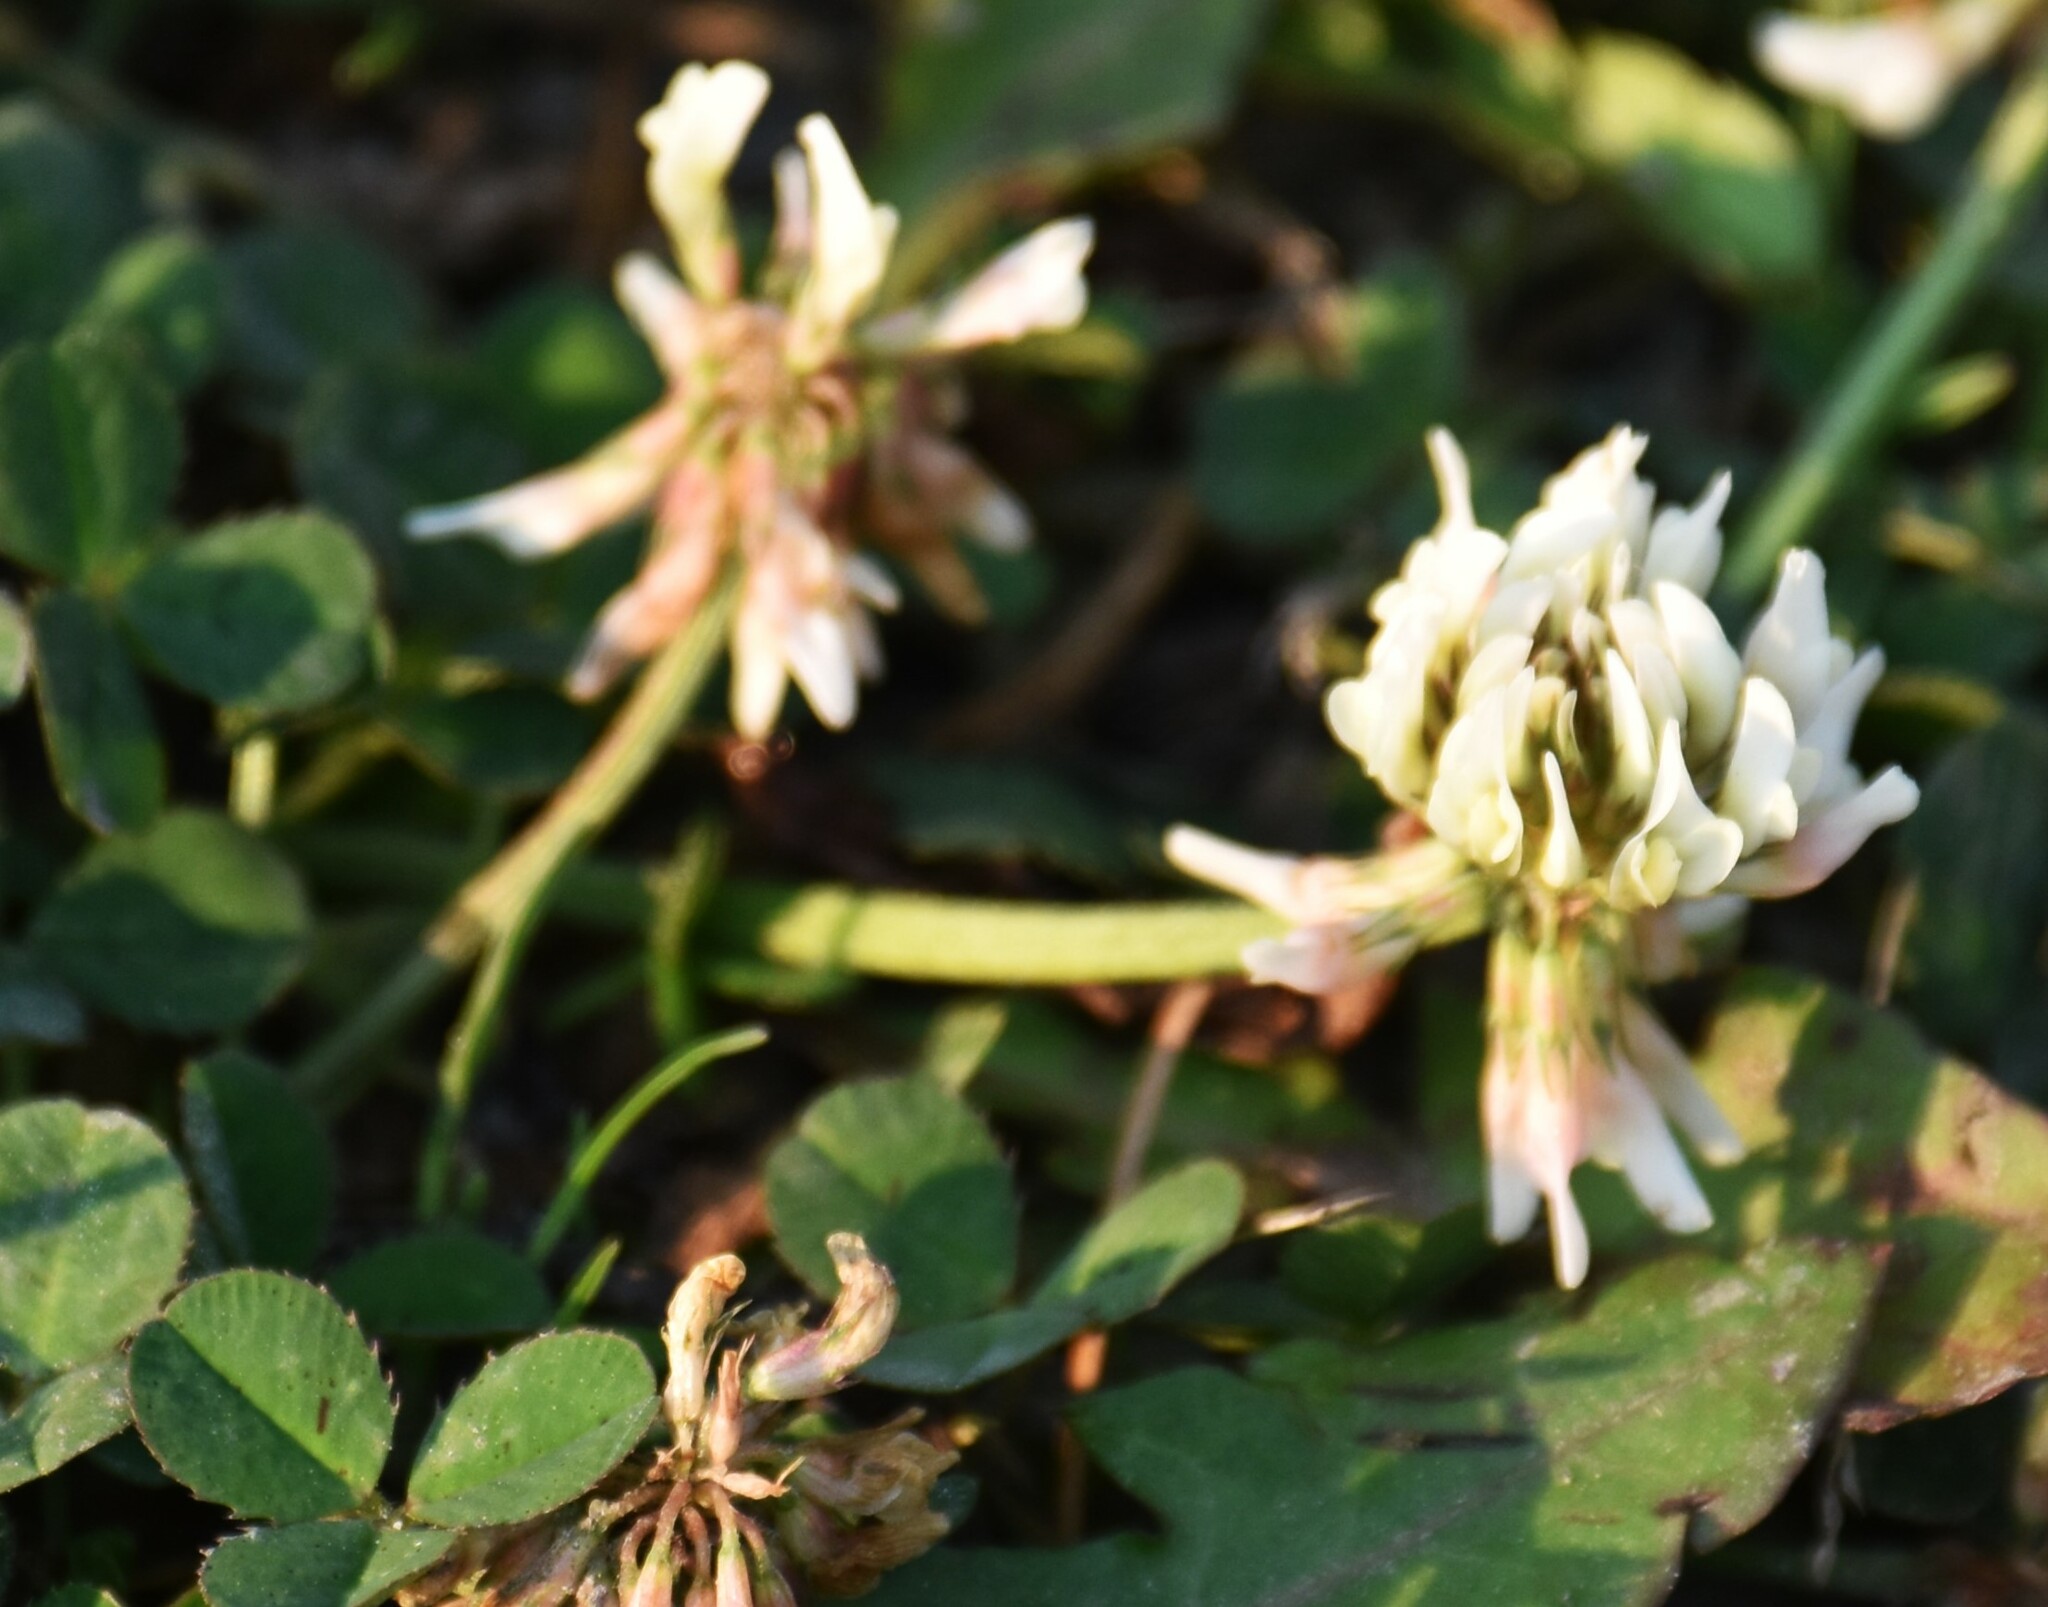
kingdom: Plantae
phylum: Tracheophyta
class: Magnoliopsida
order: Fabales
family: Fabaceae
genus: Trifolium
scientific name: Trifolium repens
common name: White clover
